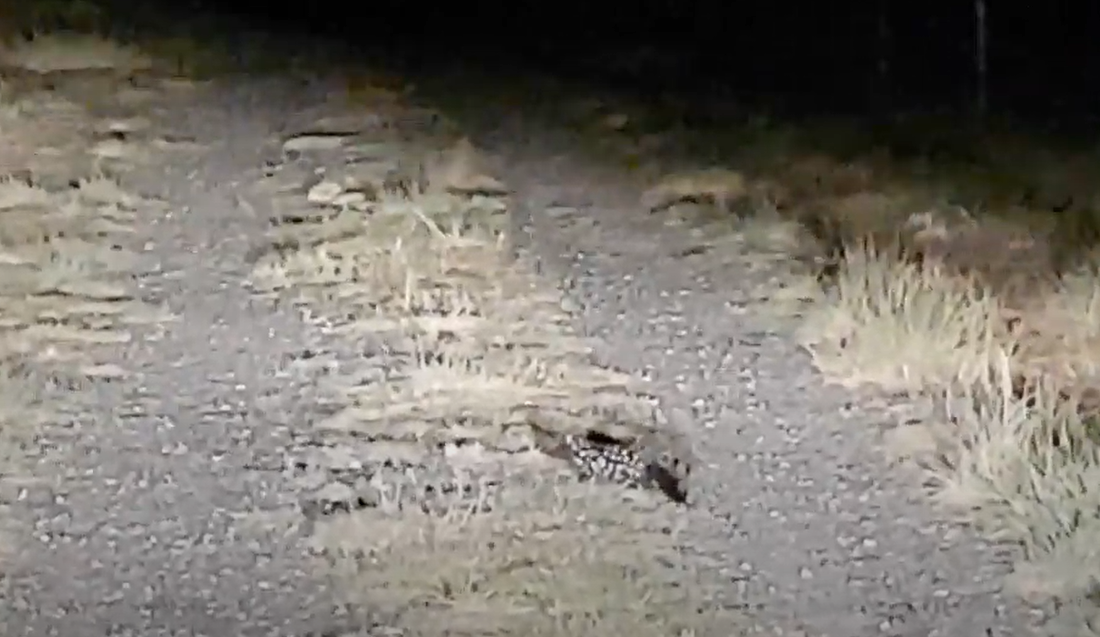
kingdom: Animalia
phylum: Chordata
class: Mammalia
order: Dasyuromorphia
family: Dasyuridae
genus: Dasyurus
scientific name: Dasyurus viverrinus
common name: Eastern quoll
